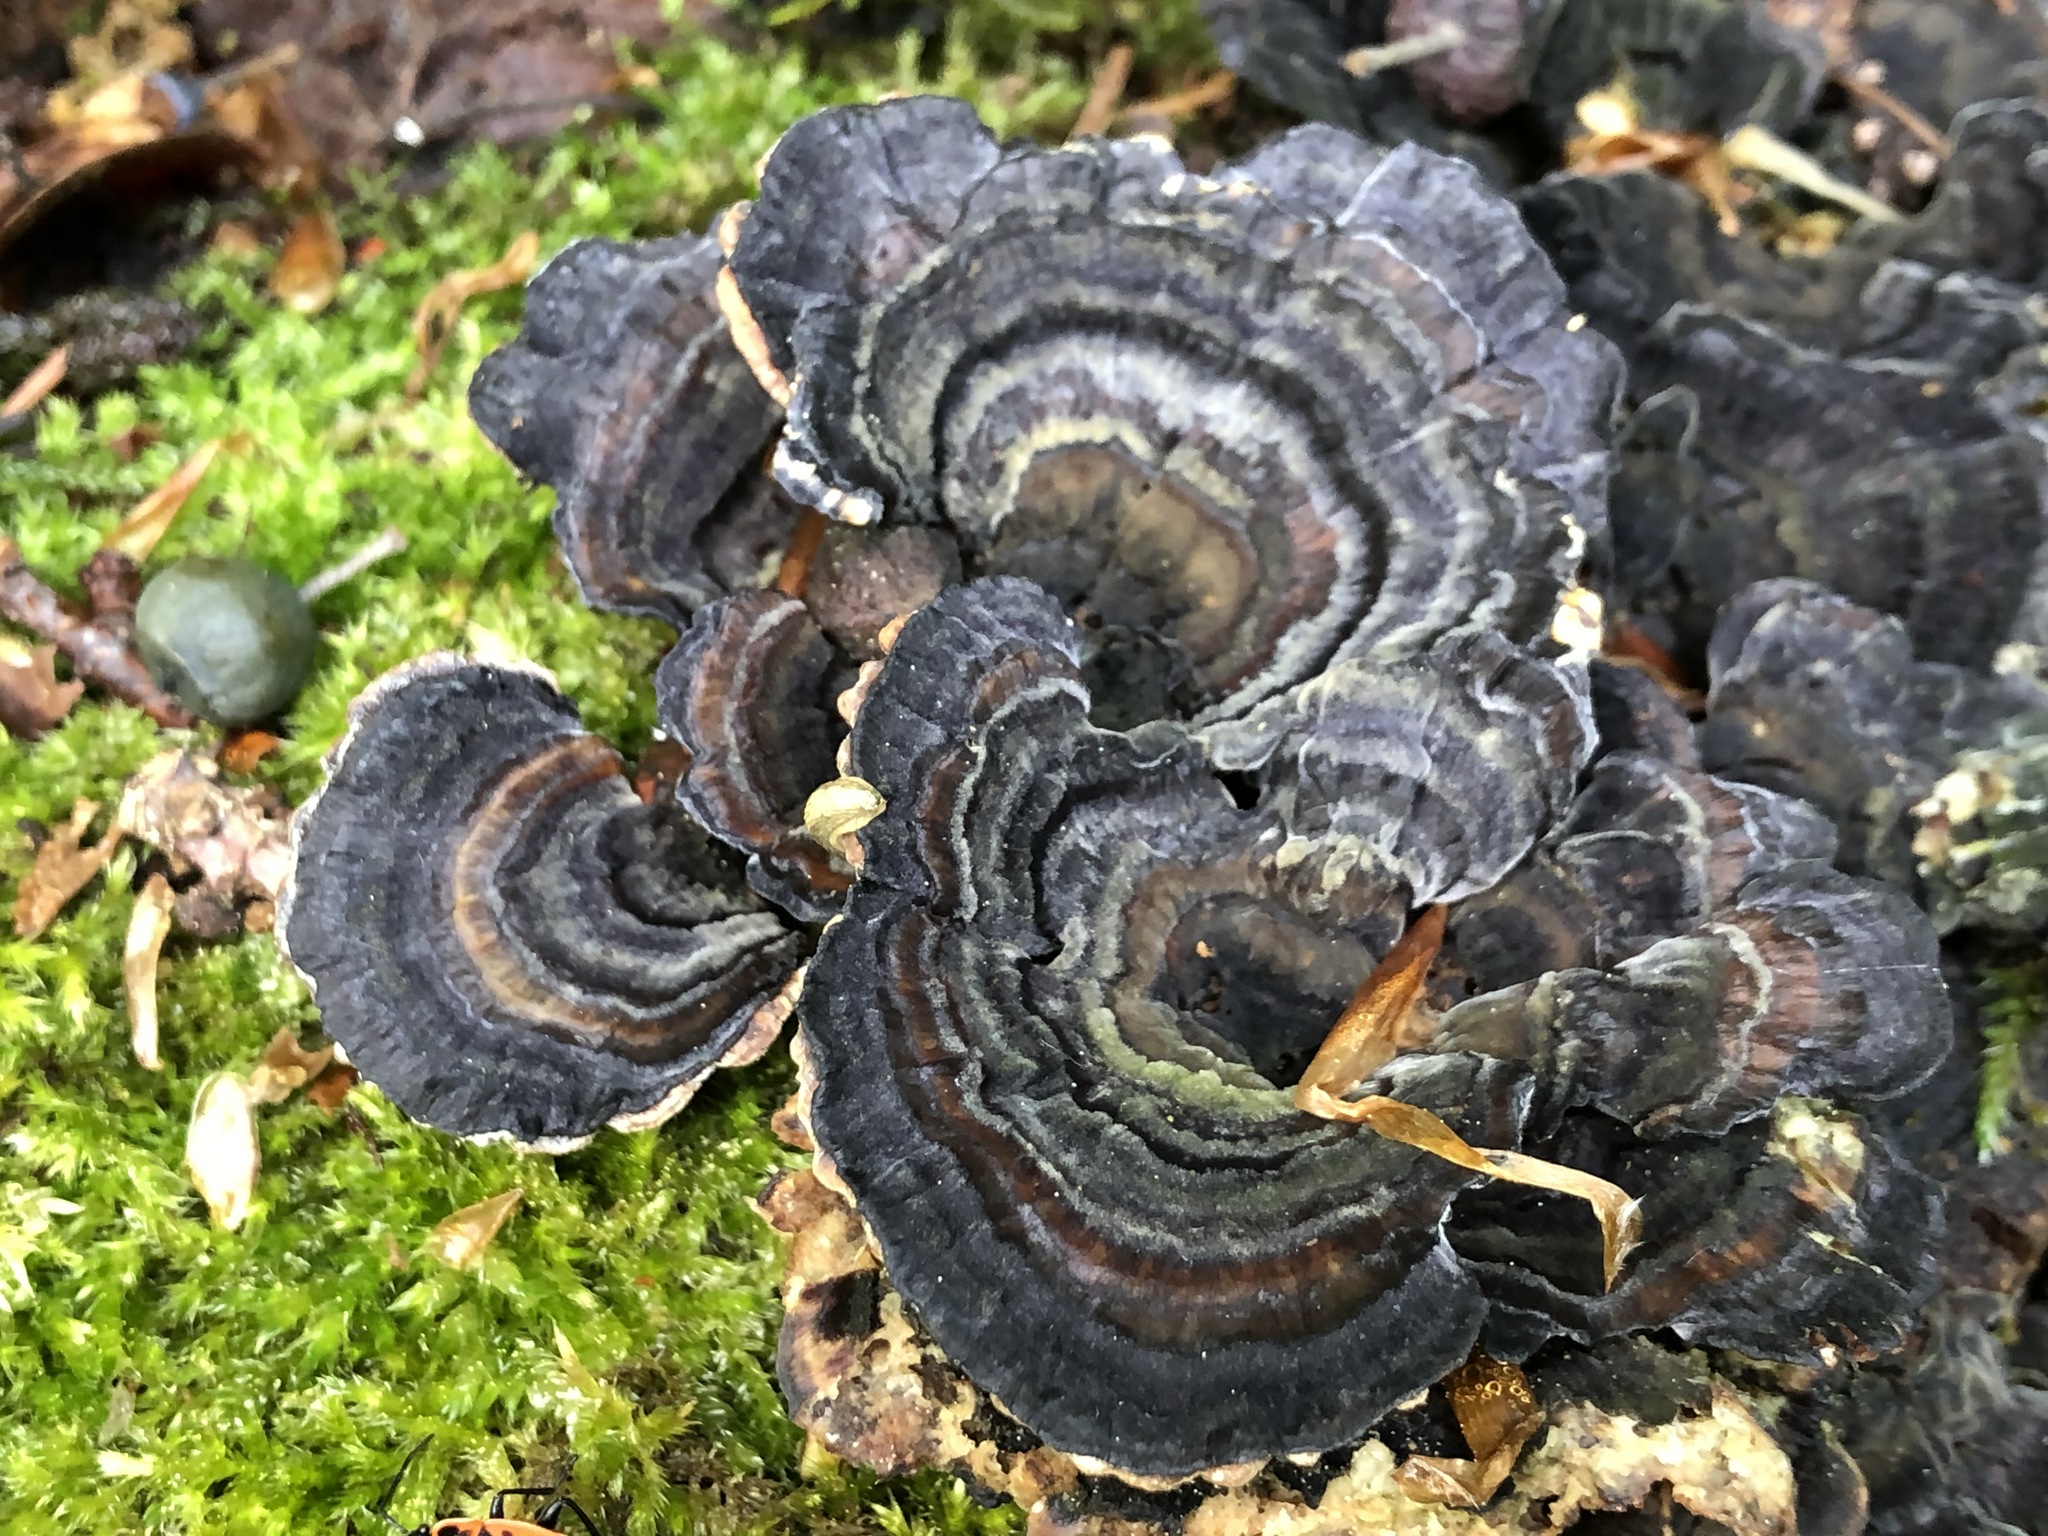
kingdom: Fungi
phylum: Basidiomycota
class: Agaricomycetes
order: Polyporales
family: Polyporaceae
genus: Trametes
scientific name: Trametes versicolor
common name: Turkeytail
